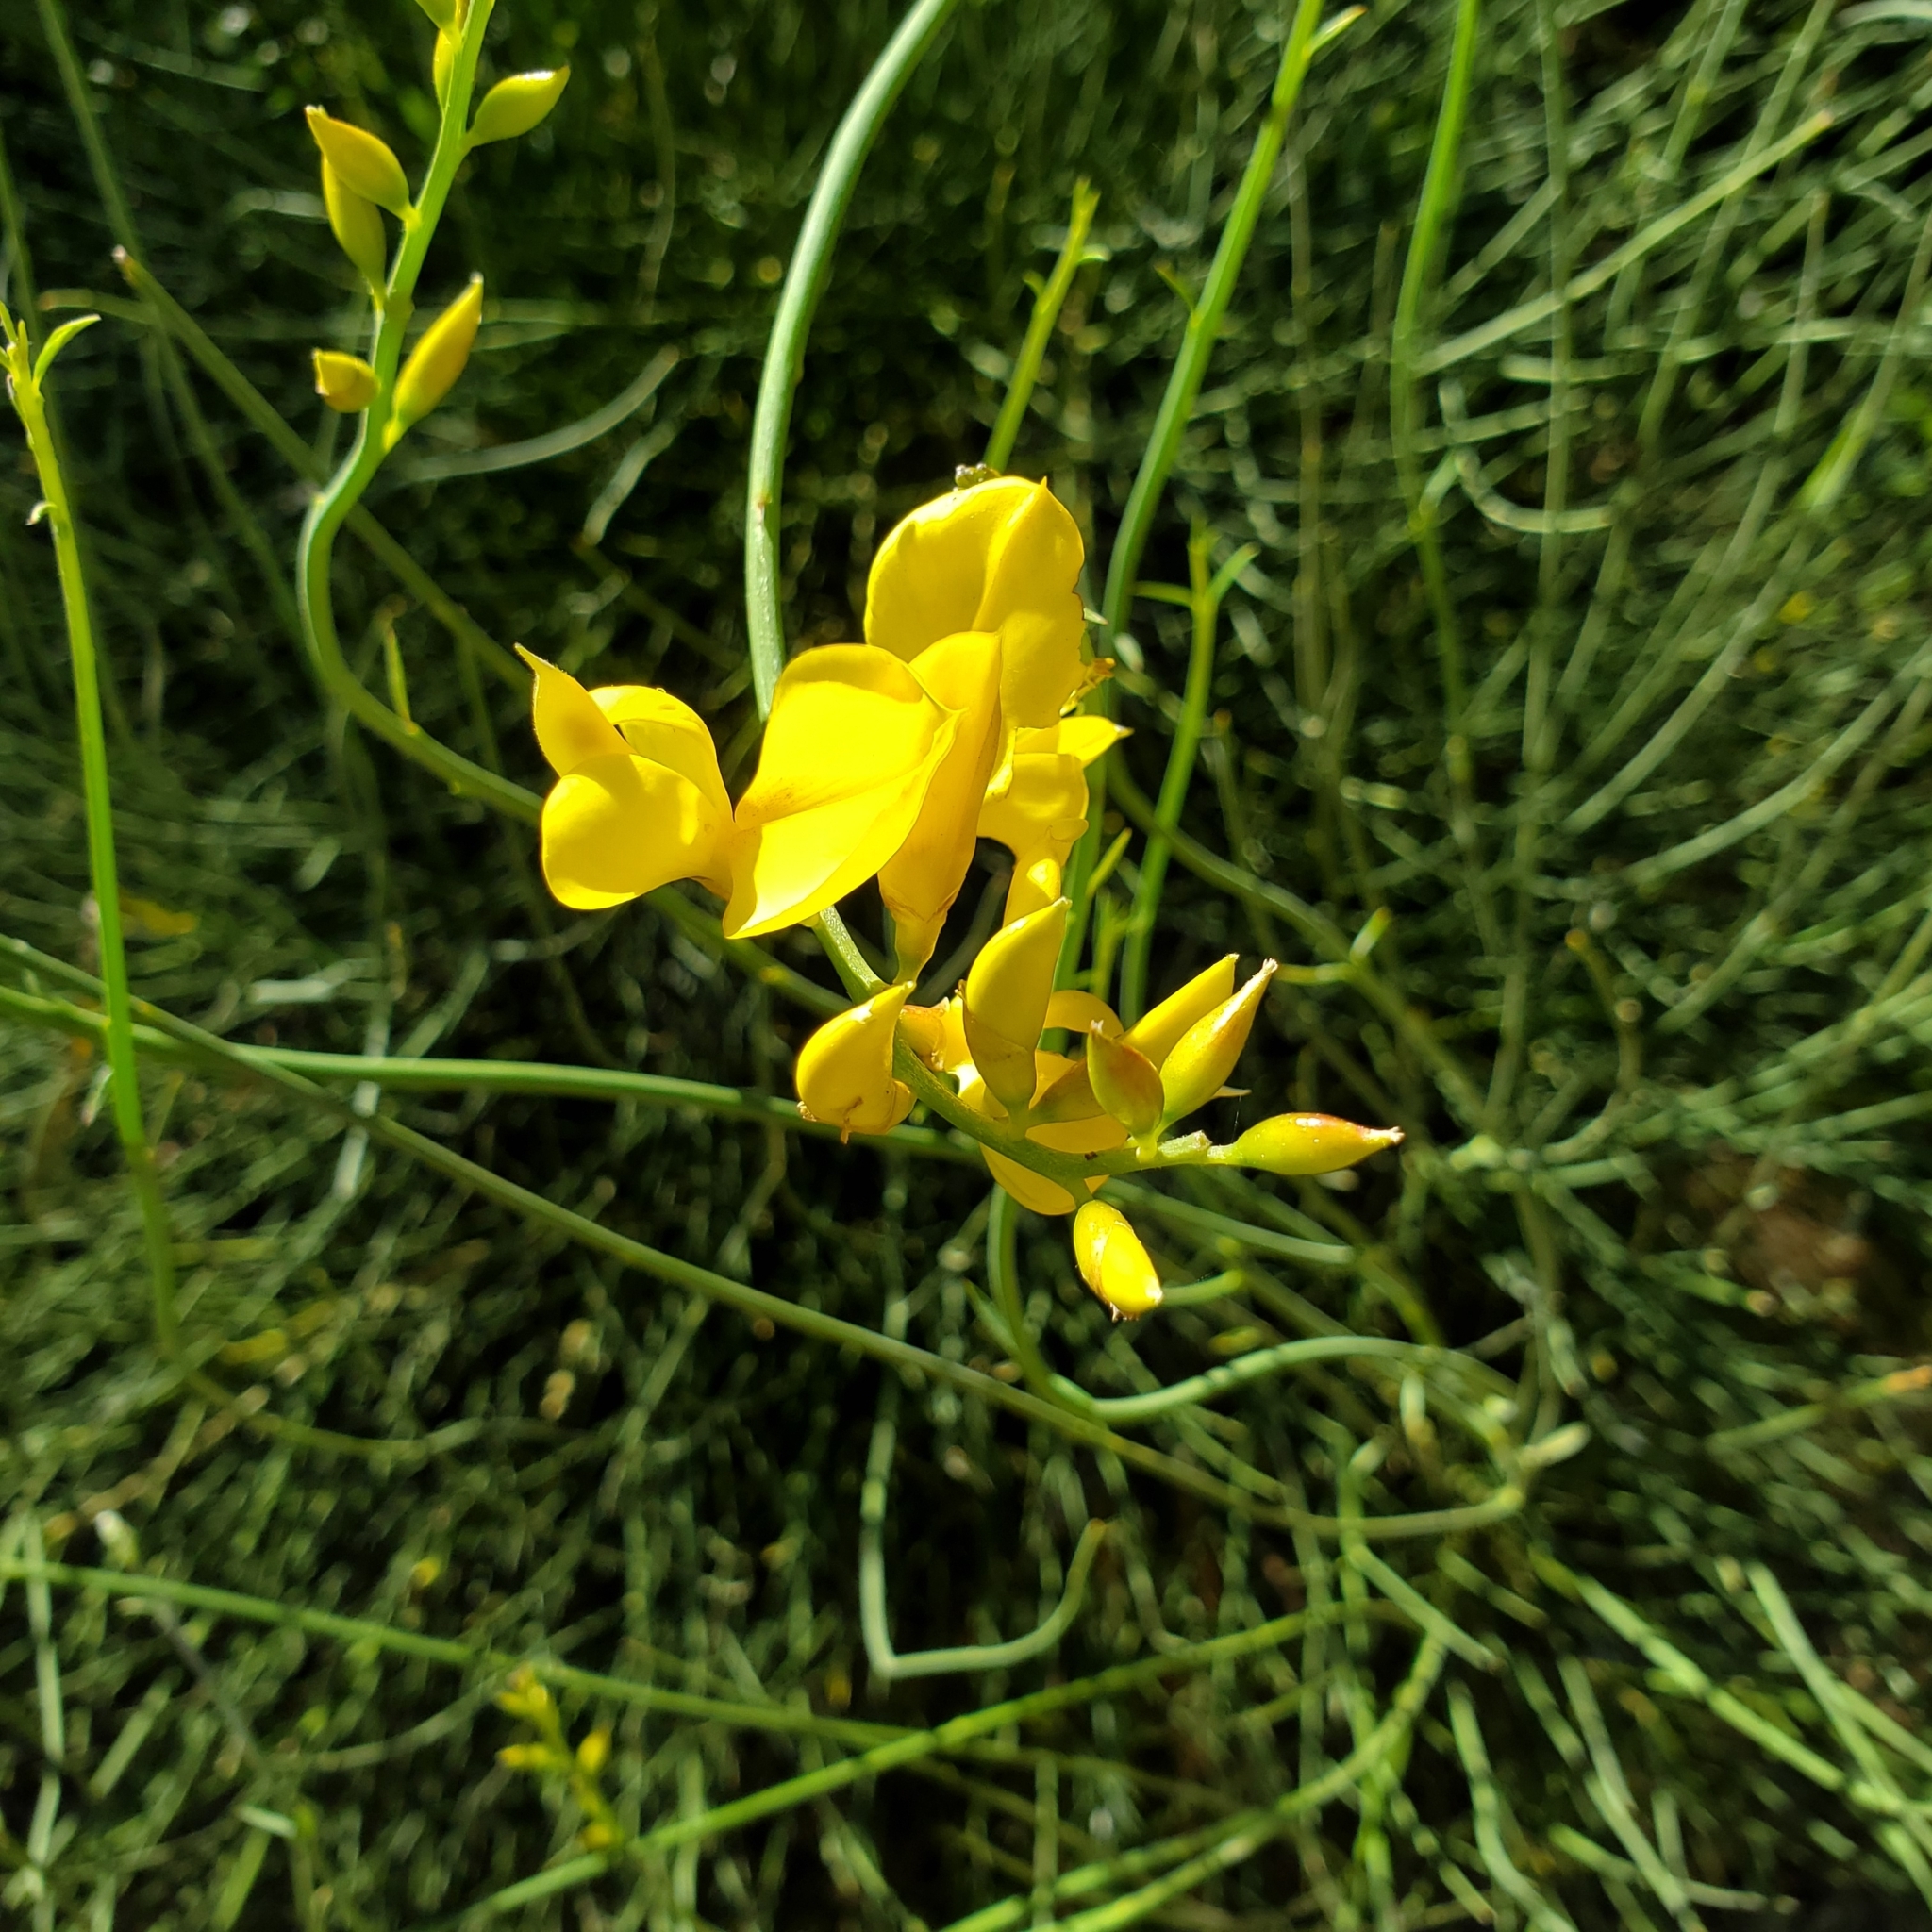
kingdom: Plantae
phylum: Tracheophyta
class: Magnoliopsida
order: Fabales
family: Fabaceae
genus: Spartium
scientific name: Spartium junceum
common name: Spanish broom
